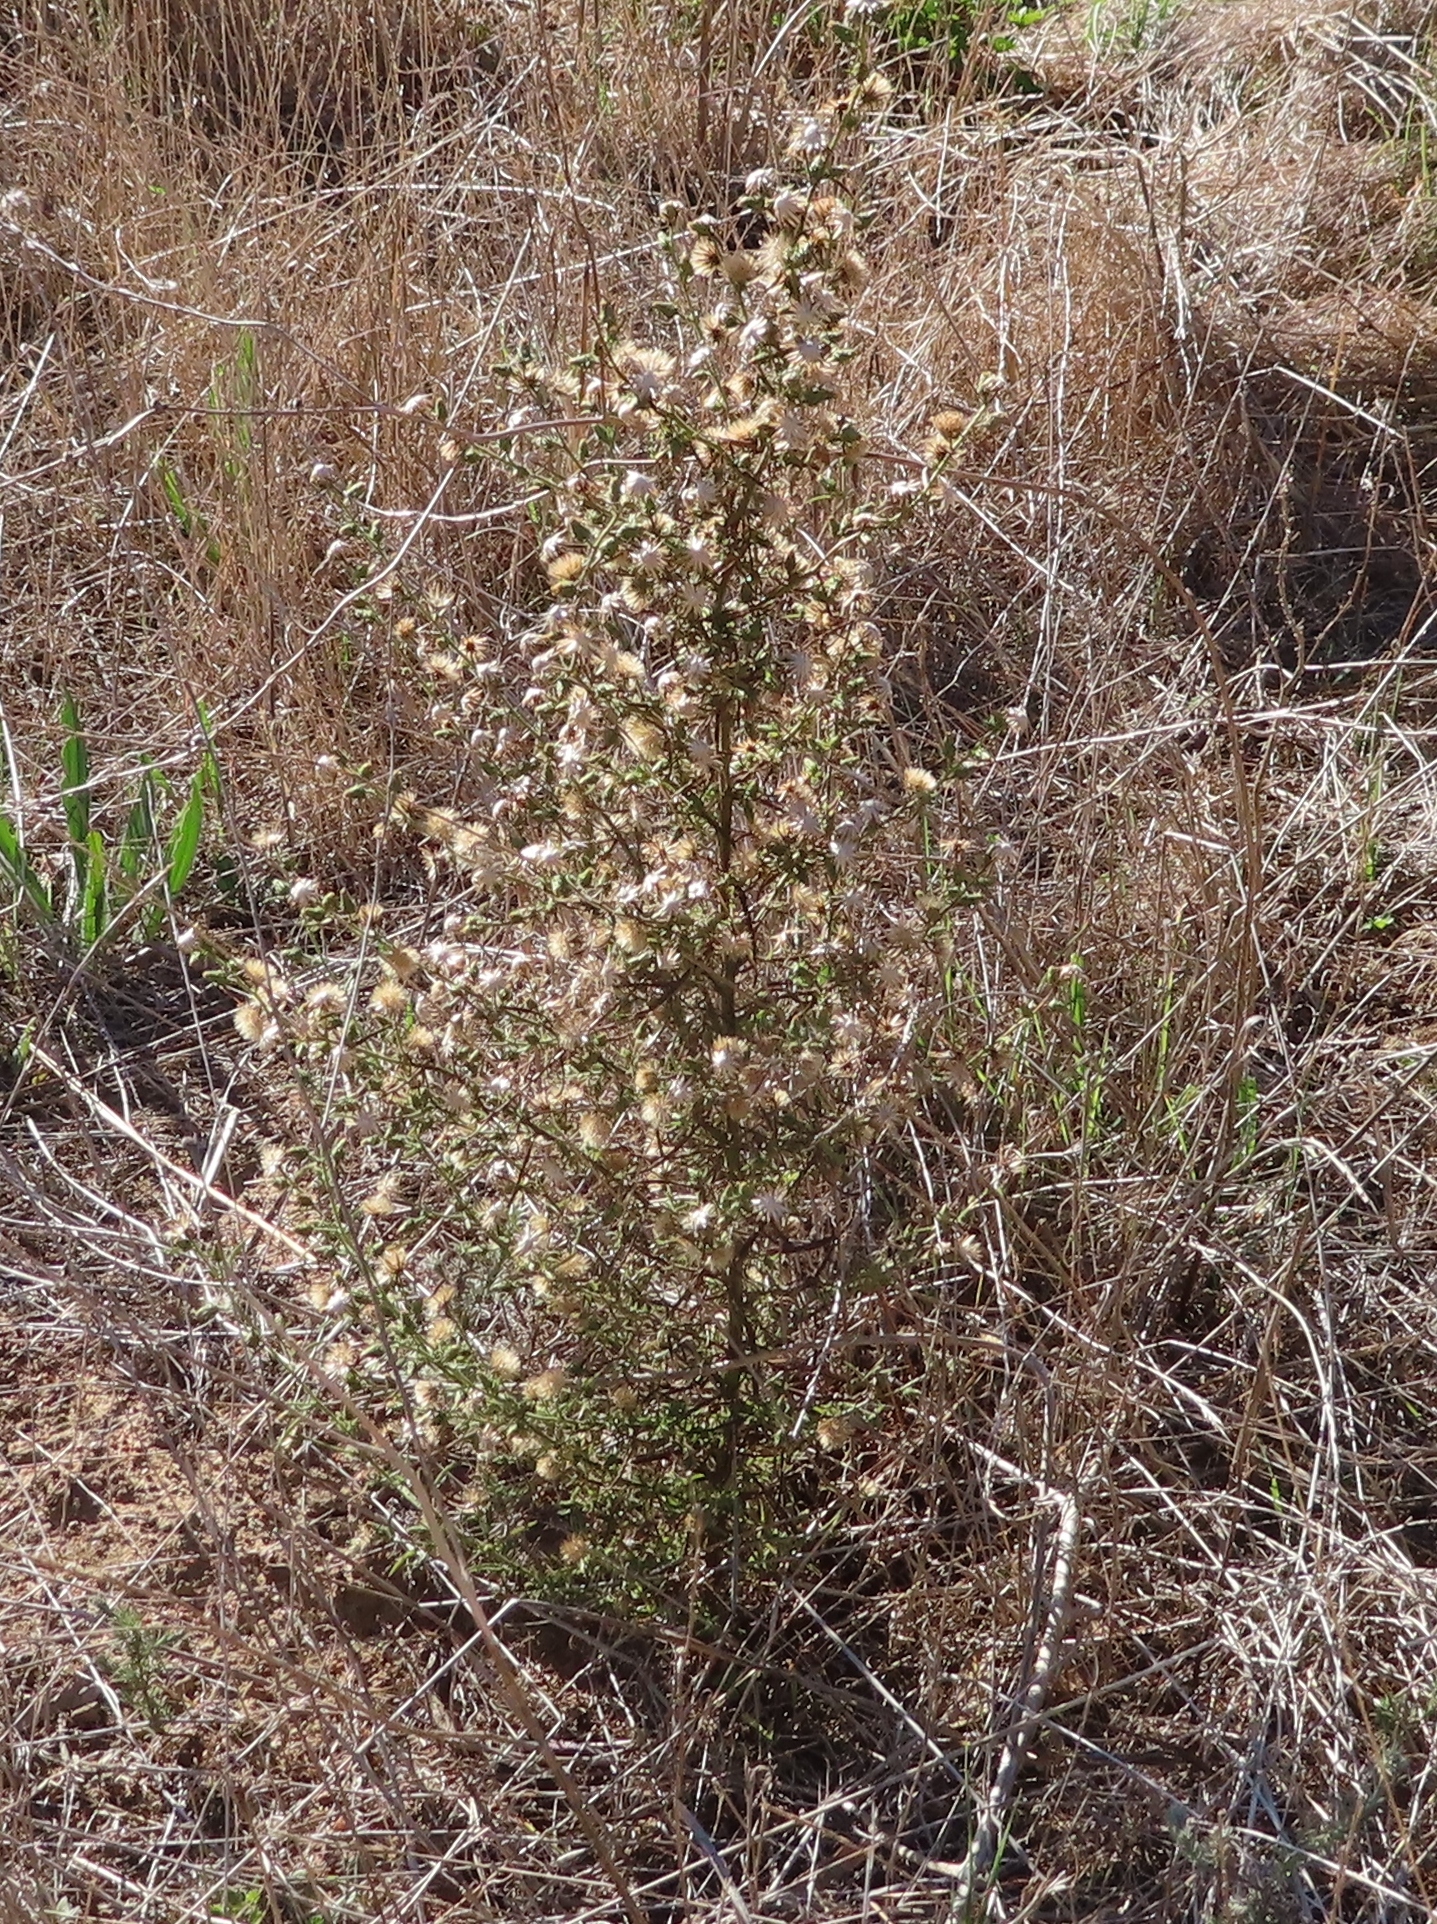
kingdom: Plantae
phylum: Tracheophyta
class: Magnoliopsida
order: Asterales
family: Asteraceae
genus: Dittrichia
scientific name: Dittrichia graveolens
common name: Stinking fleabane
